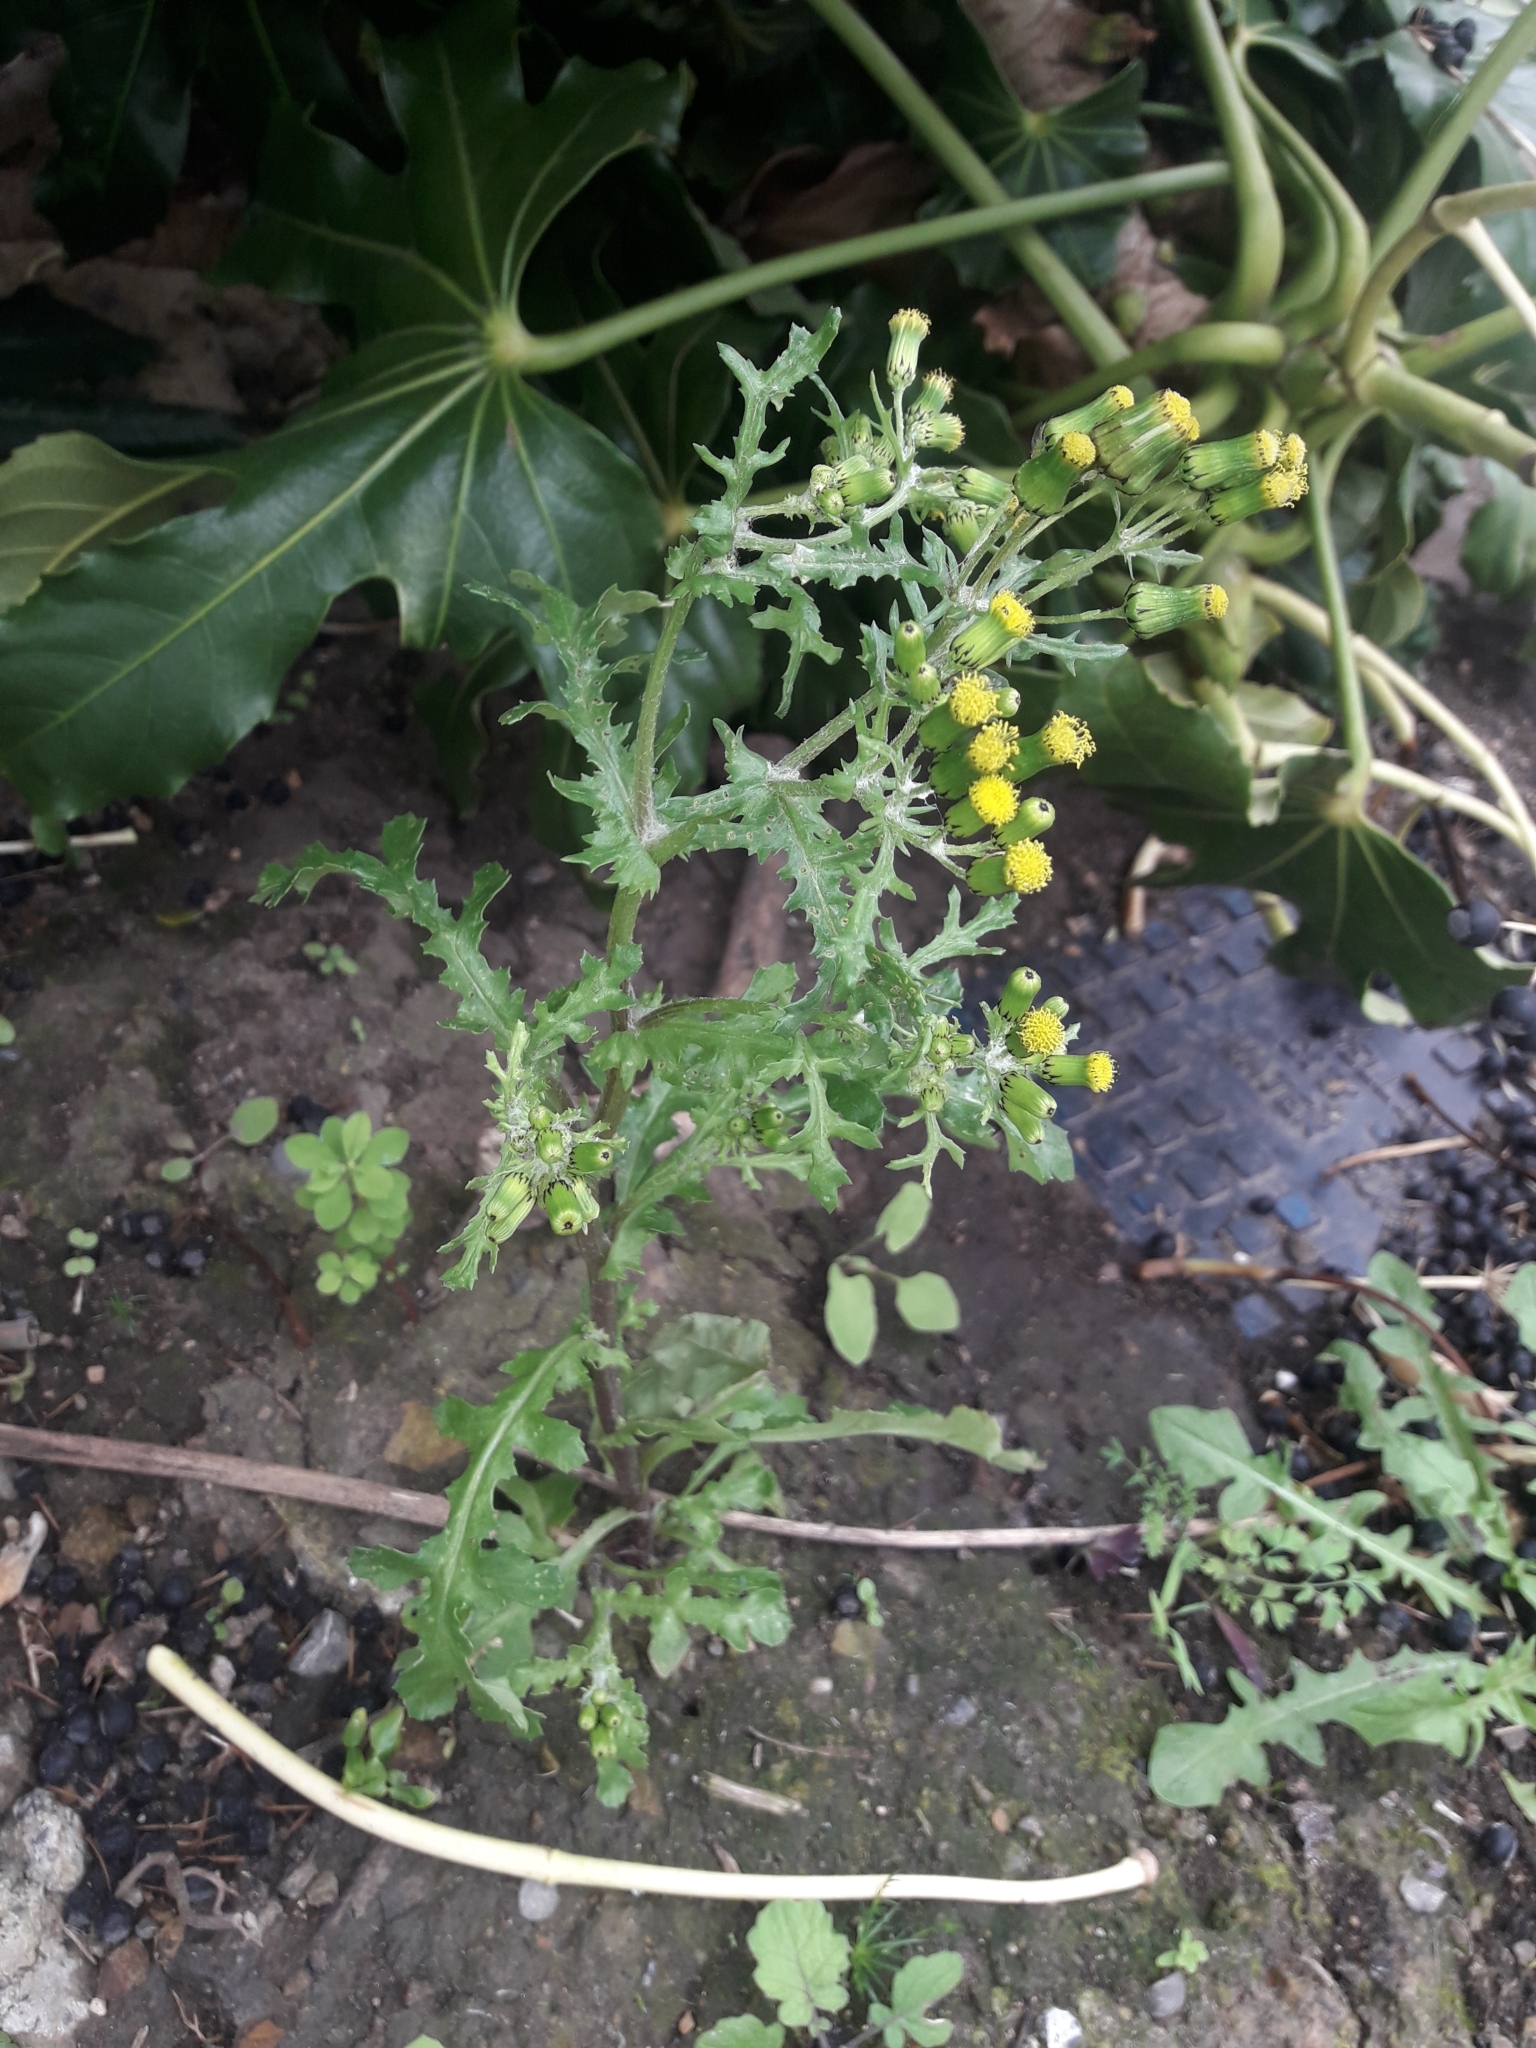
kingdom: Plantae
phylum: Tracheophyta
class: Magnoliopsida
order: Asterales
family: Asteraceae
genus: Senecio
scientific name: Senecio vulgaris
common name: Old-man-in-the-spring
